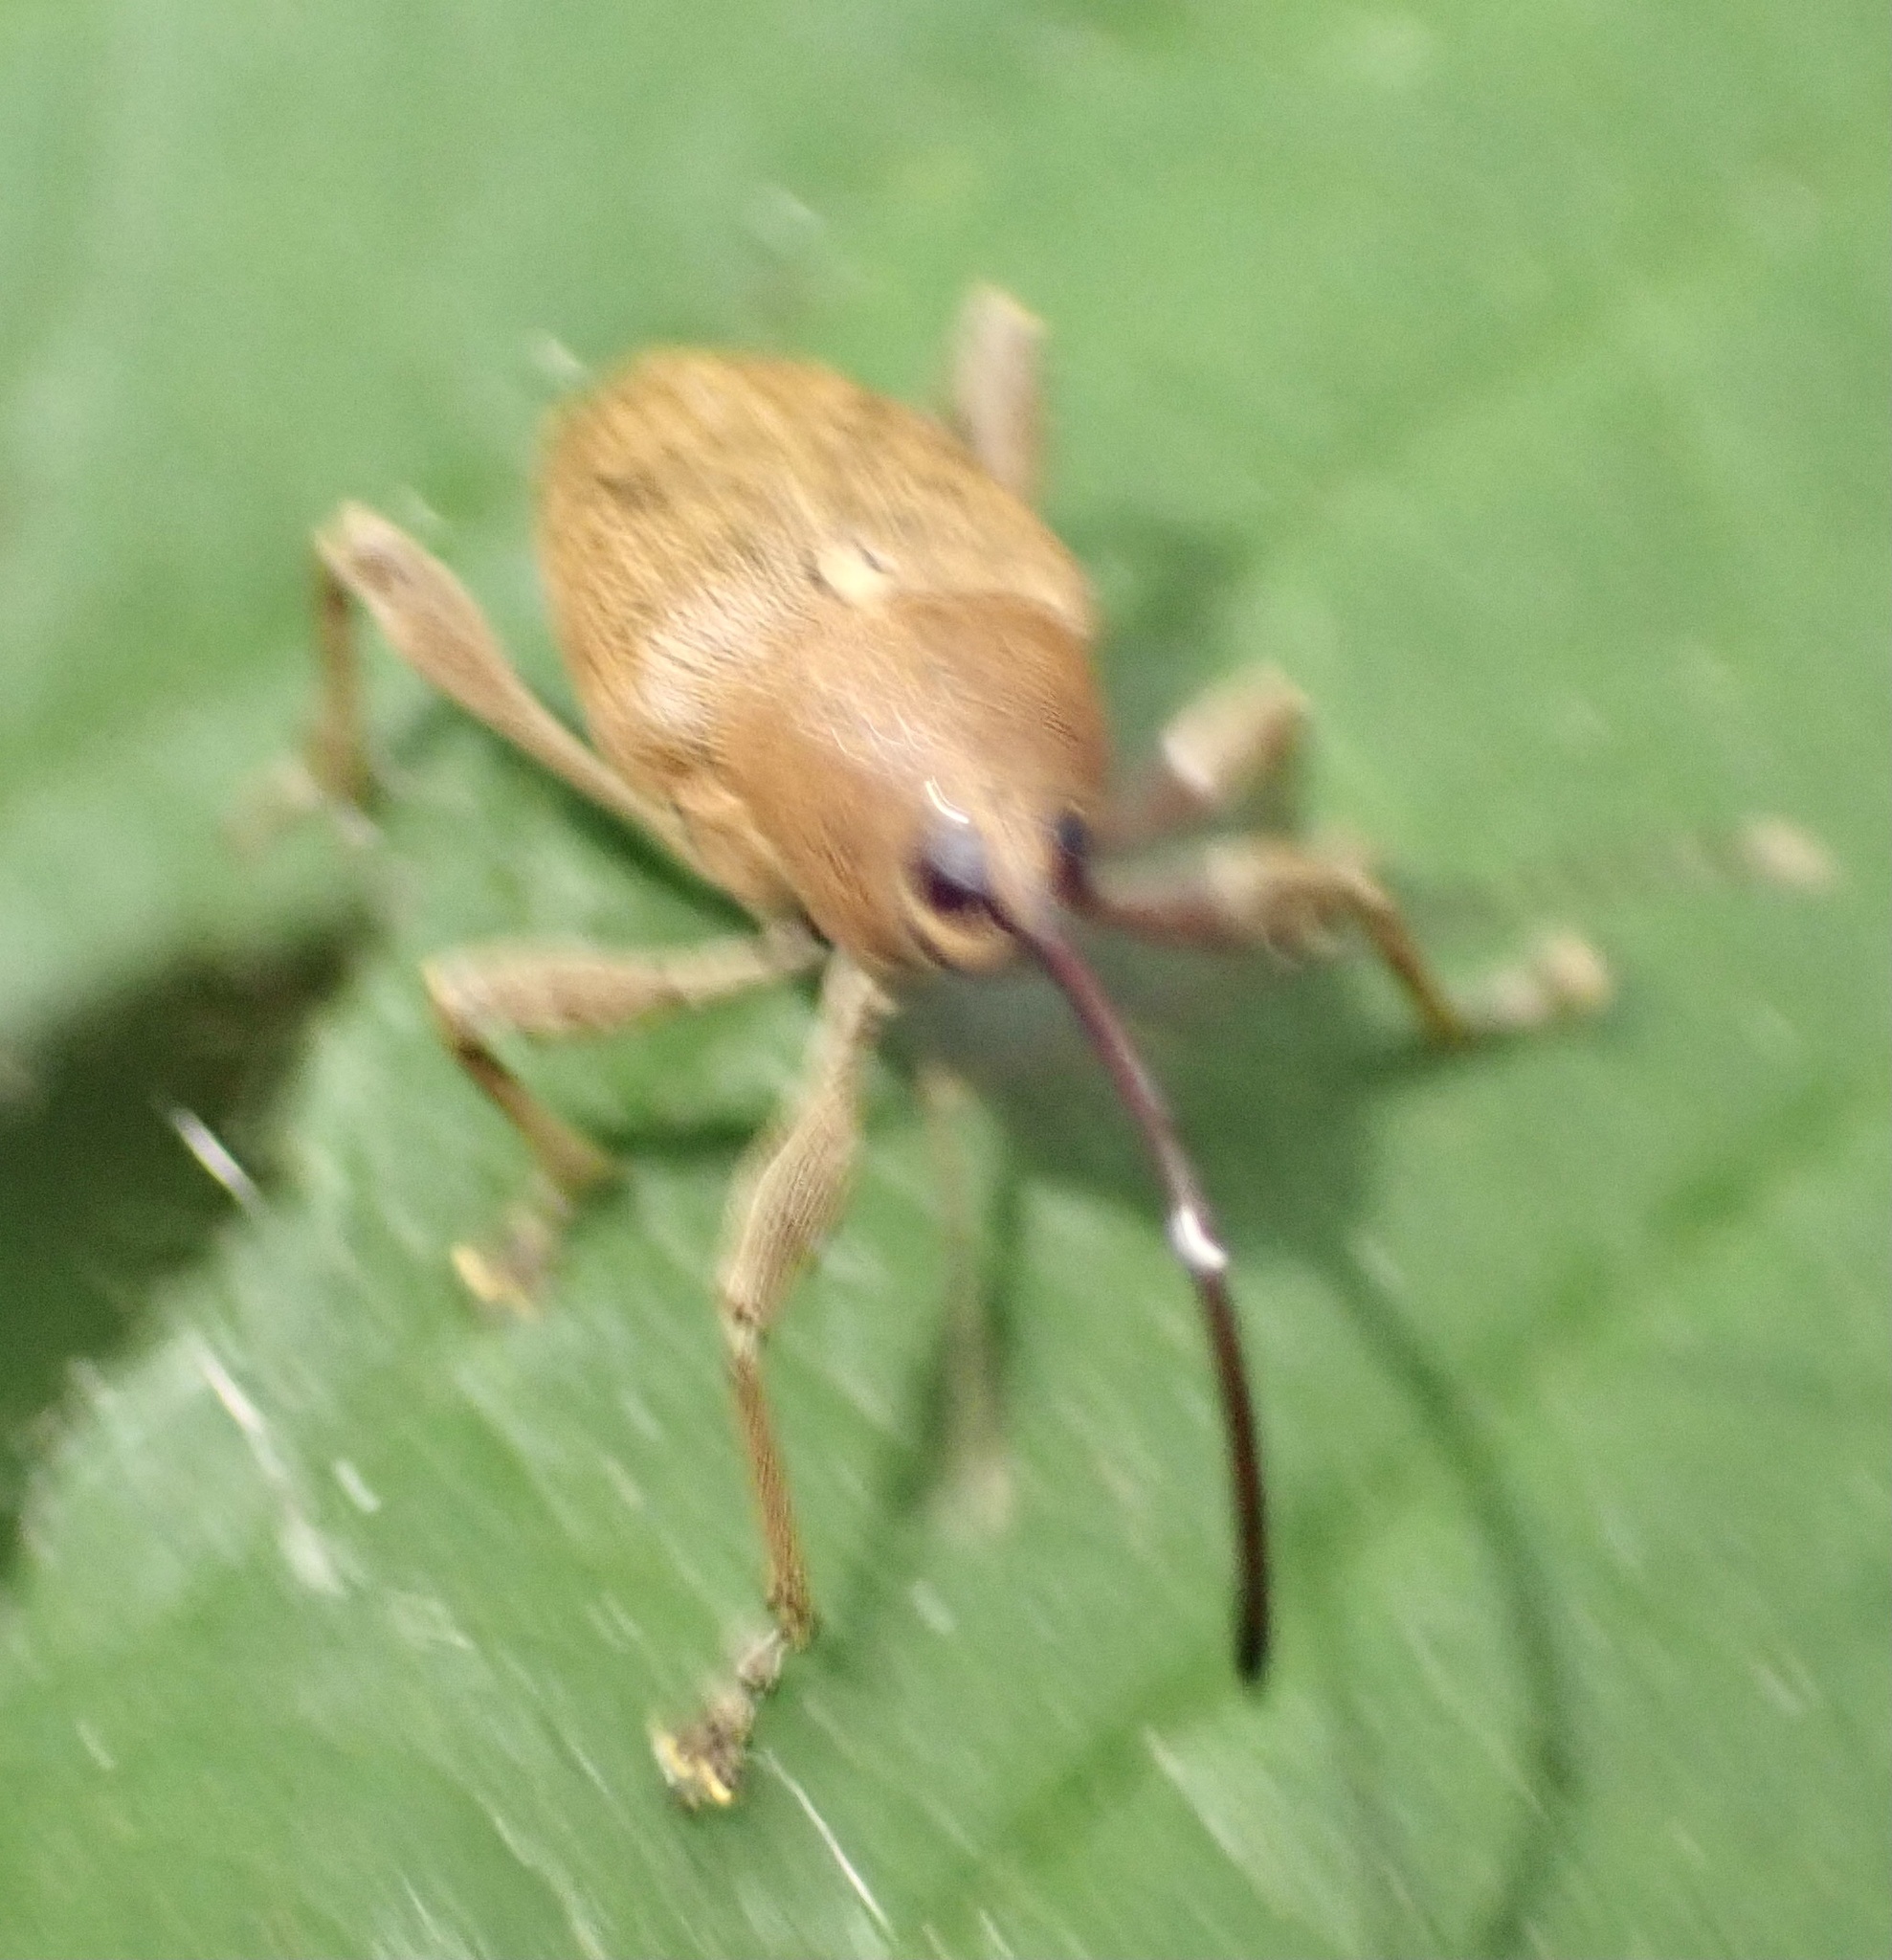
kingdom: Animalia
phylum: Arthropoda
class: Insecta
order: Coleoptera
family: Curculionidae
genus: Curculio
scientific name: Curculio glandium
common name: Acorn weevil
